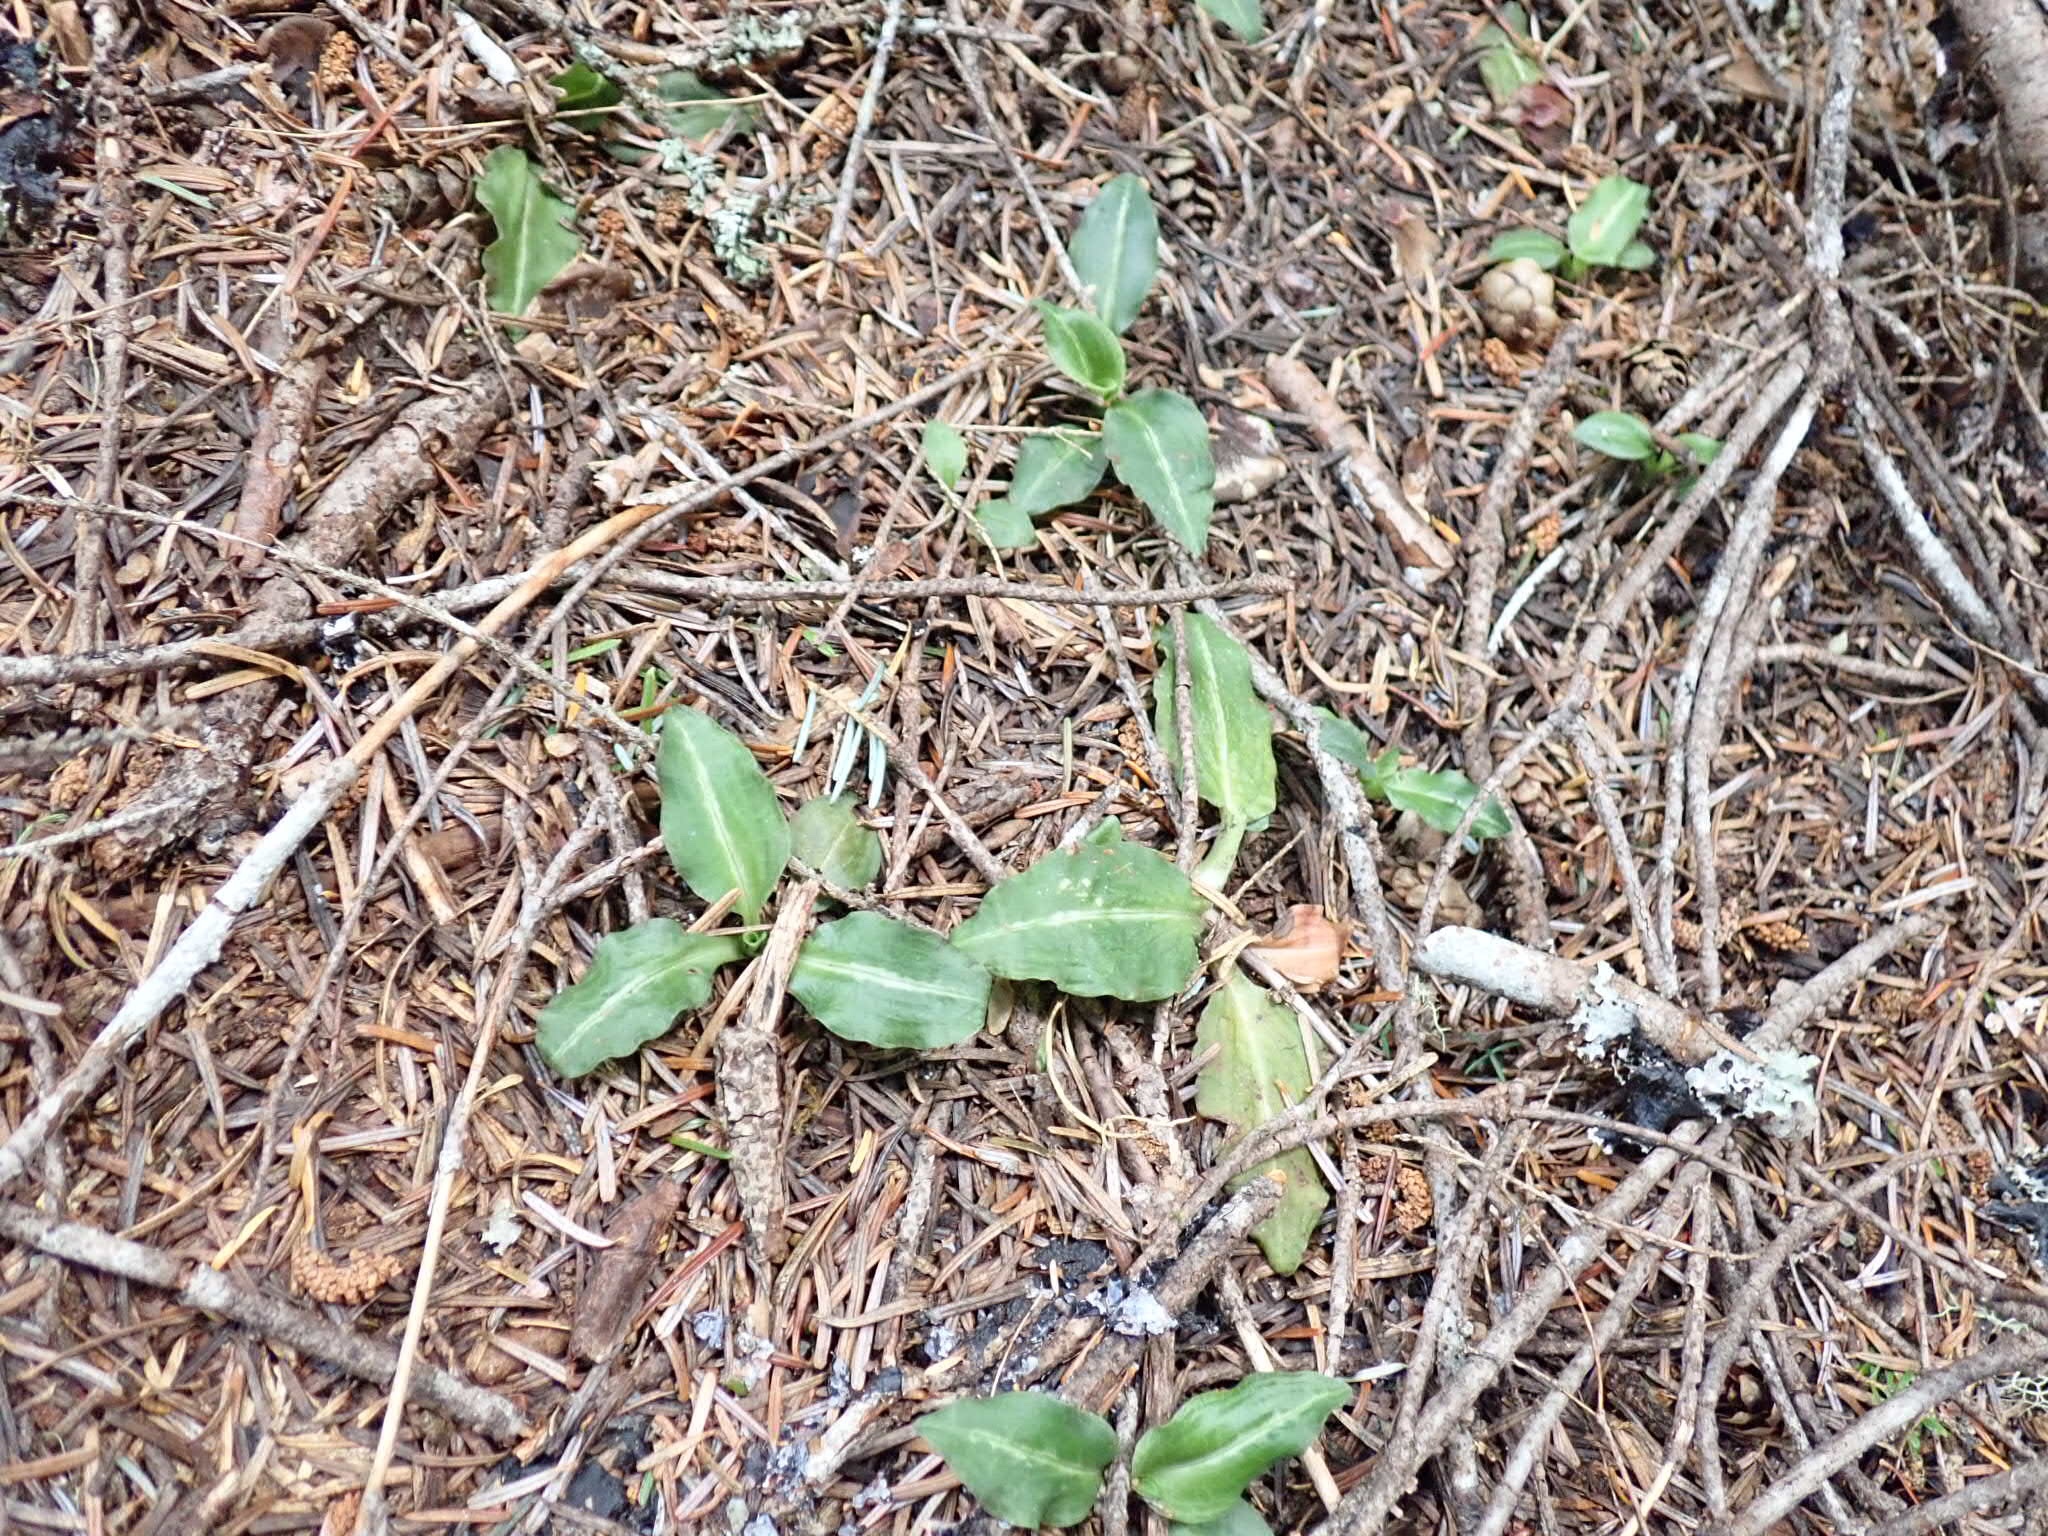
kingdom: Plantae
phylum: Tracheophyta
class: Liliopsida
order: Asparagales
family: Orchidaceae
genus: Goodyera
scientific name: Goodyera oblongifolia
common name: Giant rattlesnake-plantain
